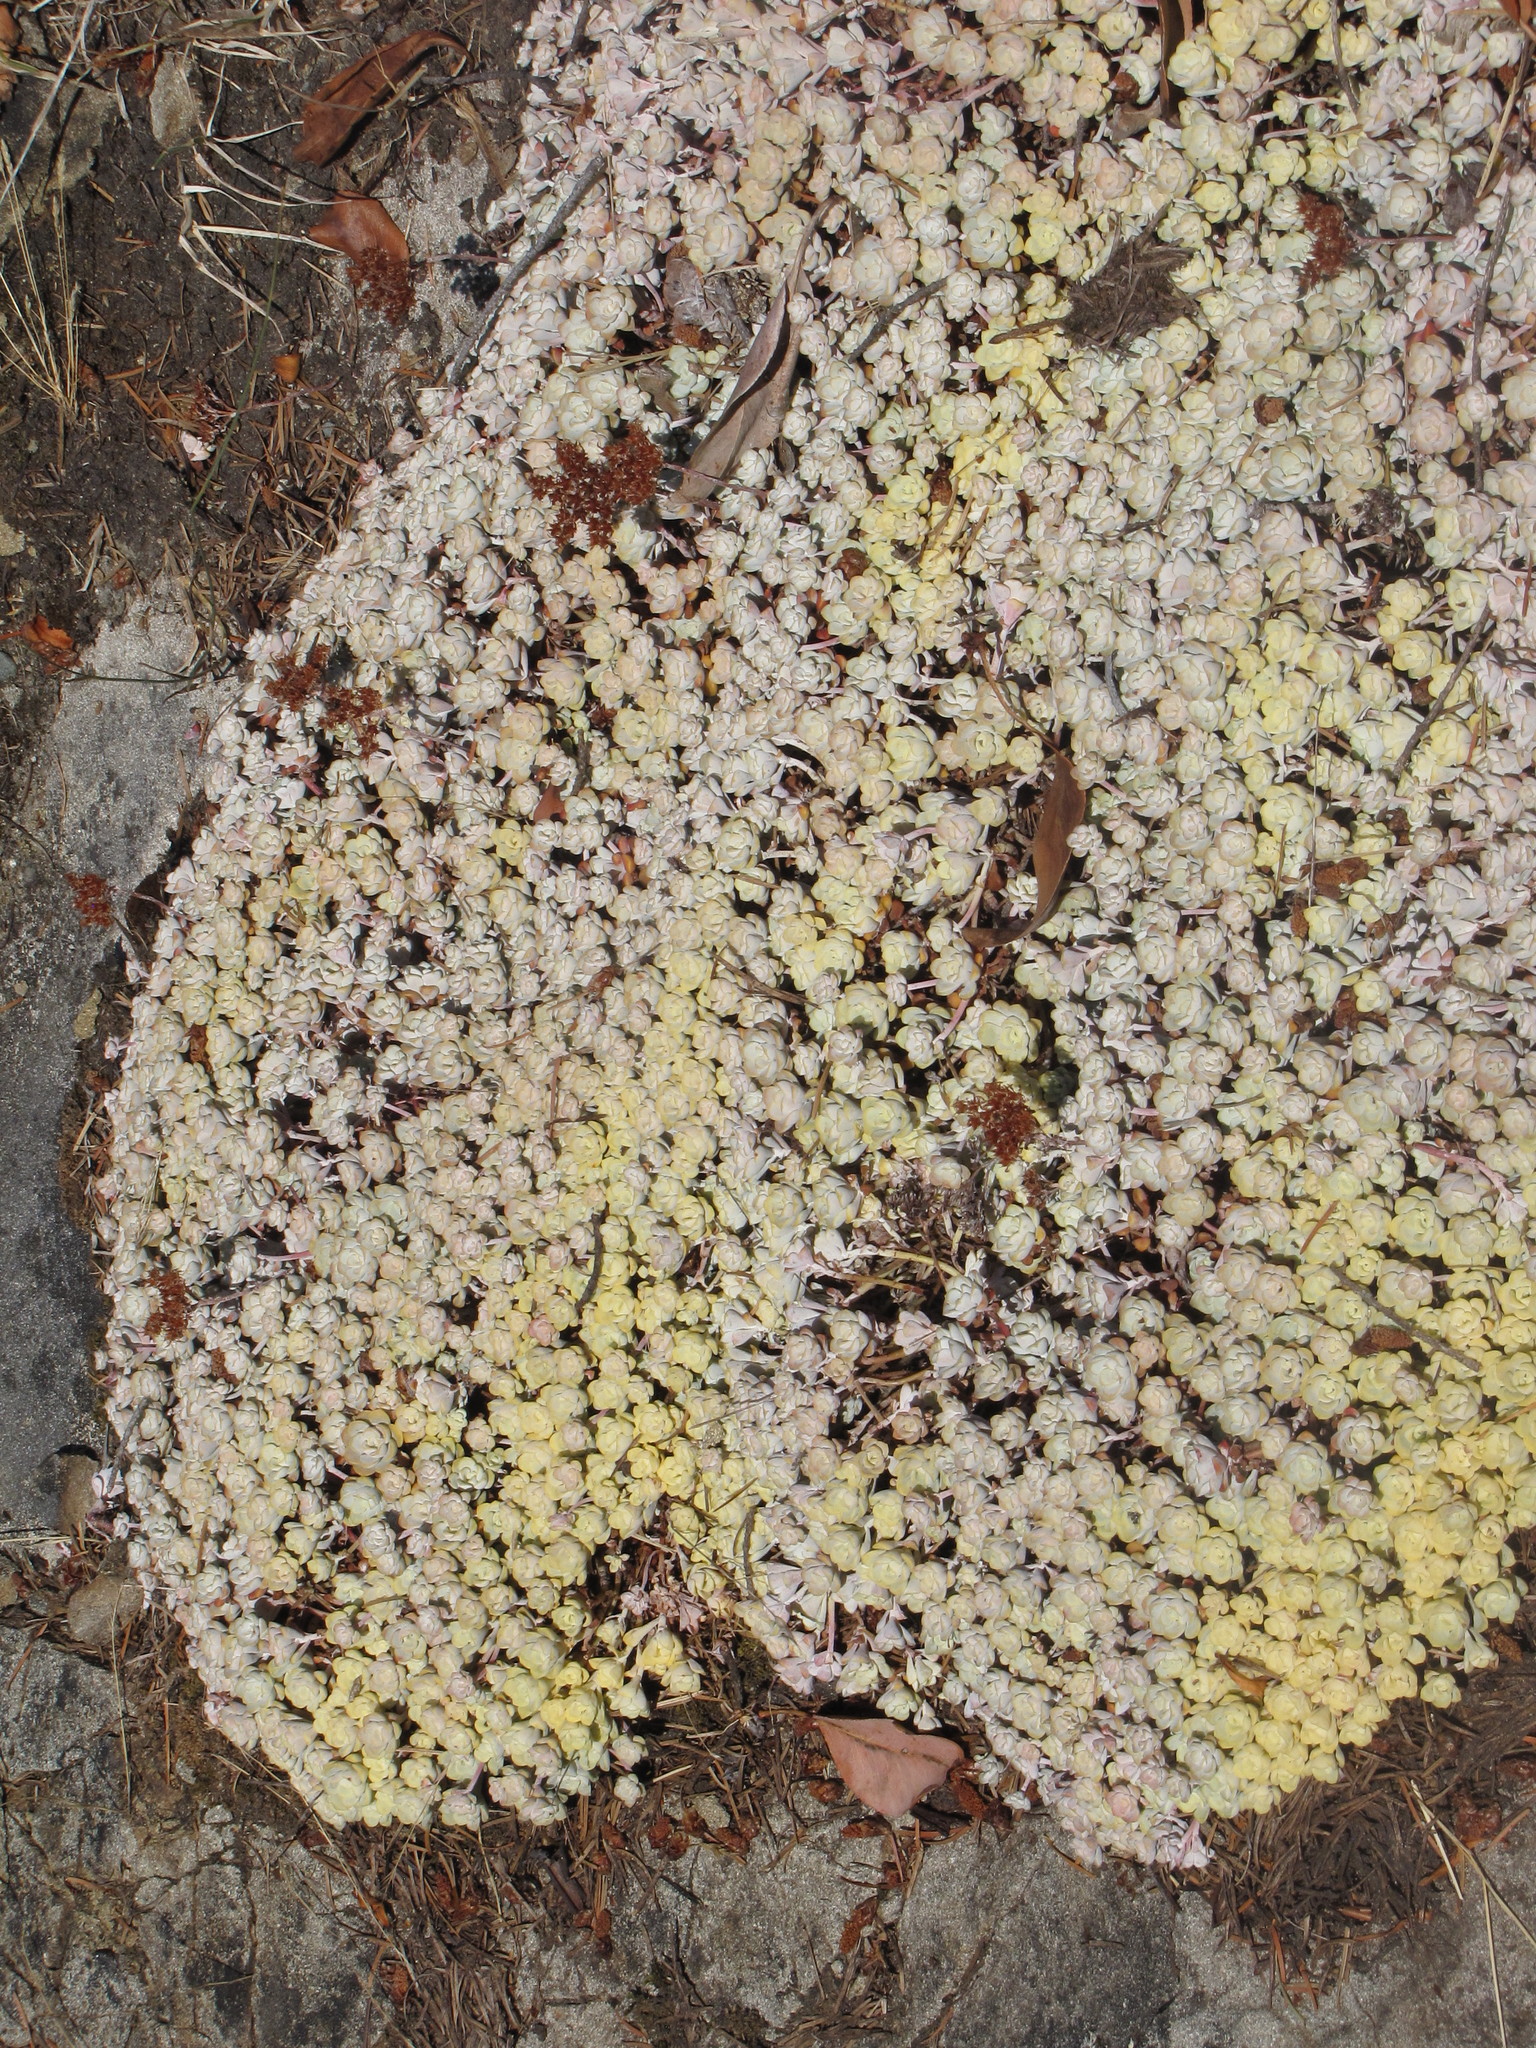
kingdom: Plantae
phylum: Tracheophyta
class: Magnoliopsida
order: Saxifragales
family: Crassulaceae
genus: Sedum
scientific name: Sedum spathulifolium
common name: Colorado stonecrop
